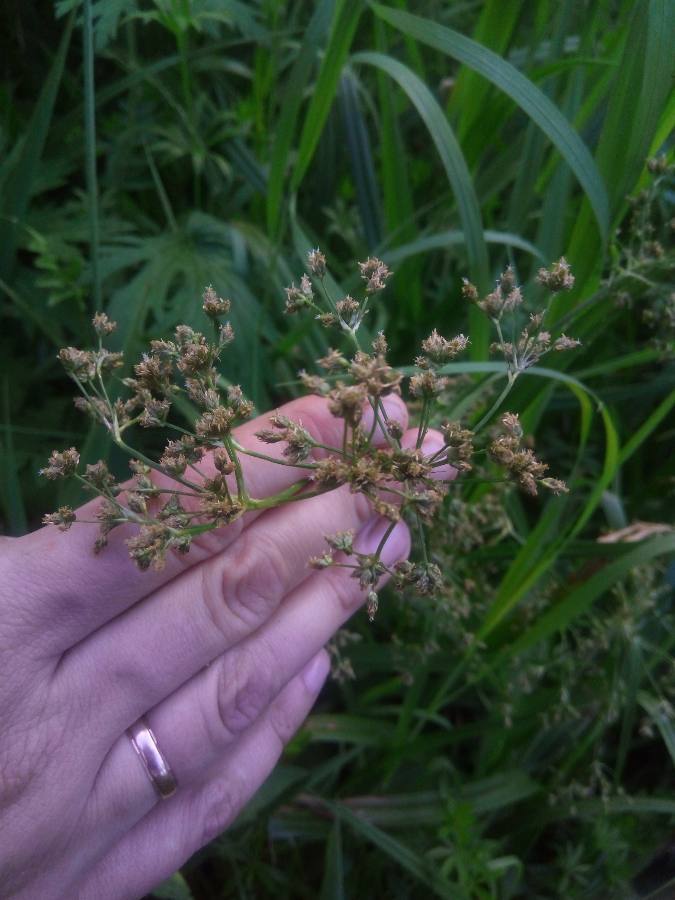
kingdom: Plantae
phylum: Tracheophyta
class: Liliopsida
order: Poales
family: Cyperaceae
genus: Scirpus
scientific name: Scirpus sylvaticus
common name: Wood club-rush
